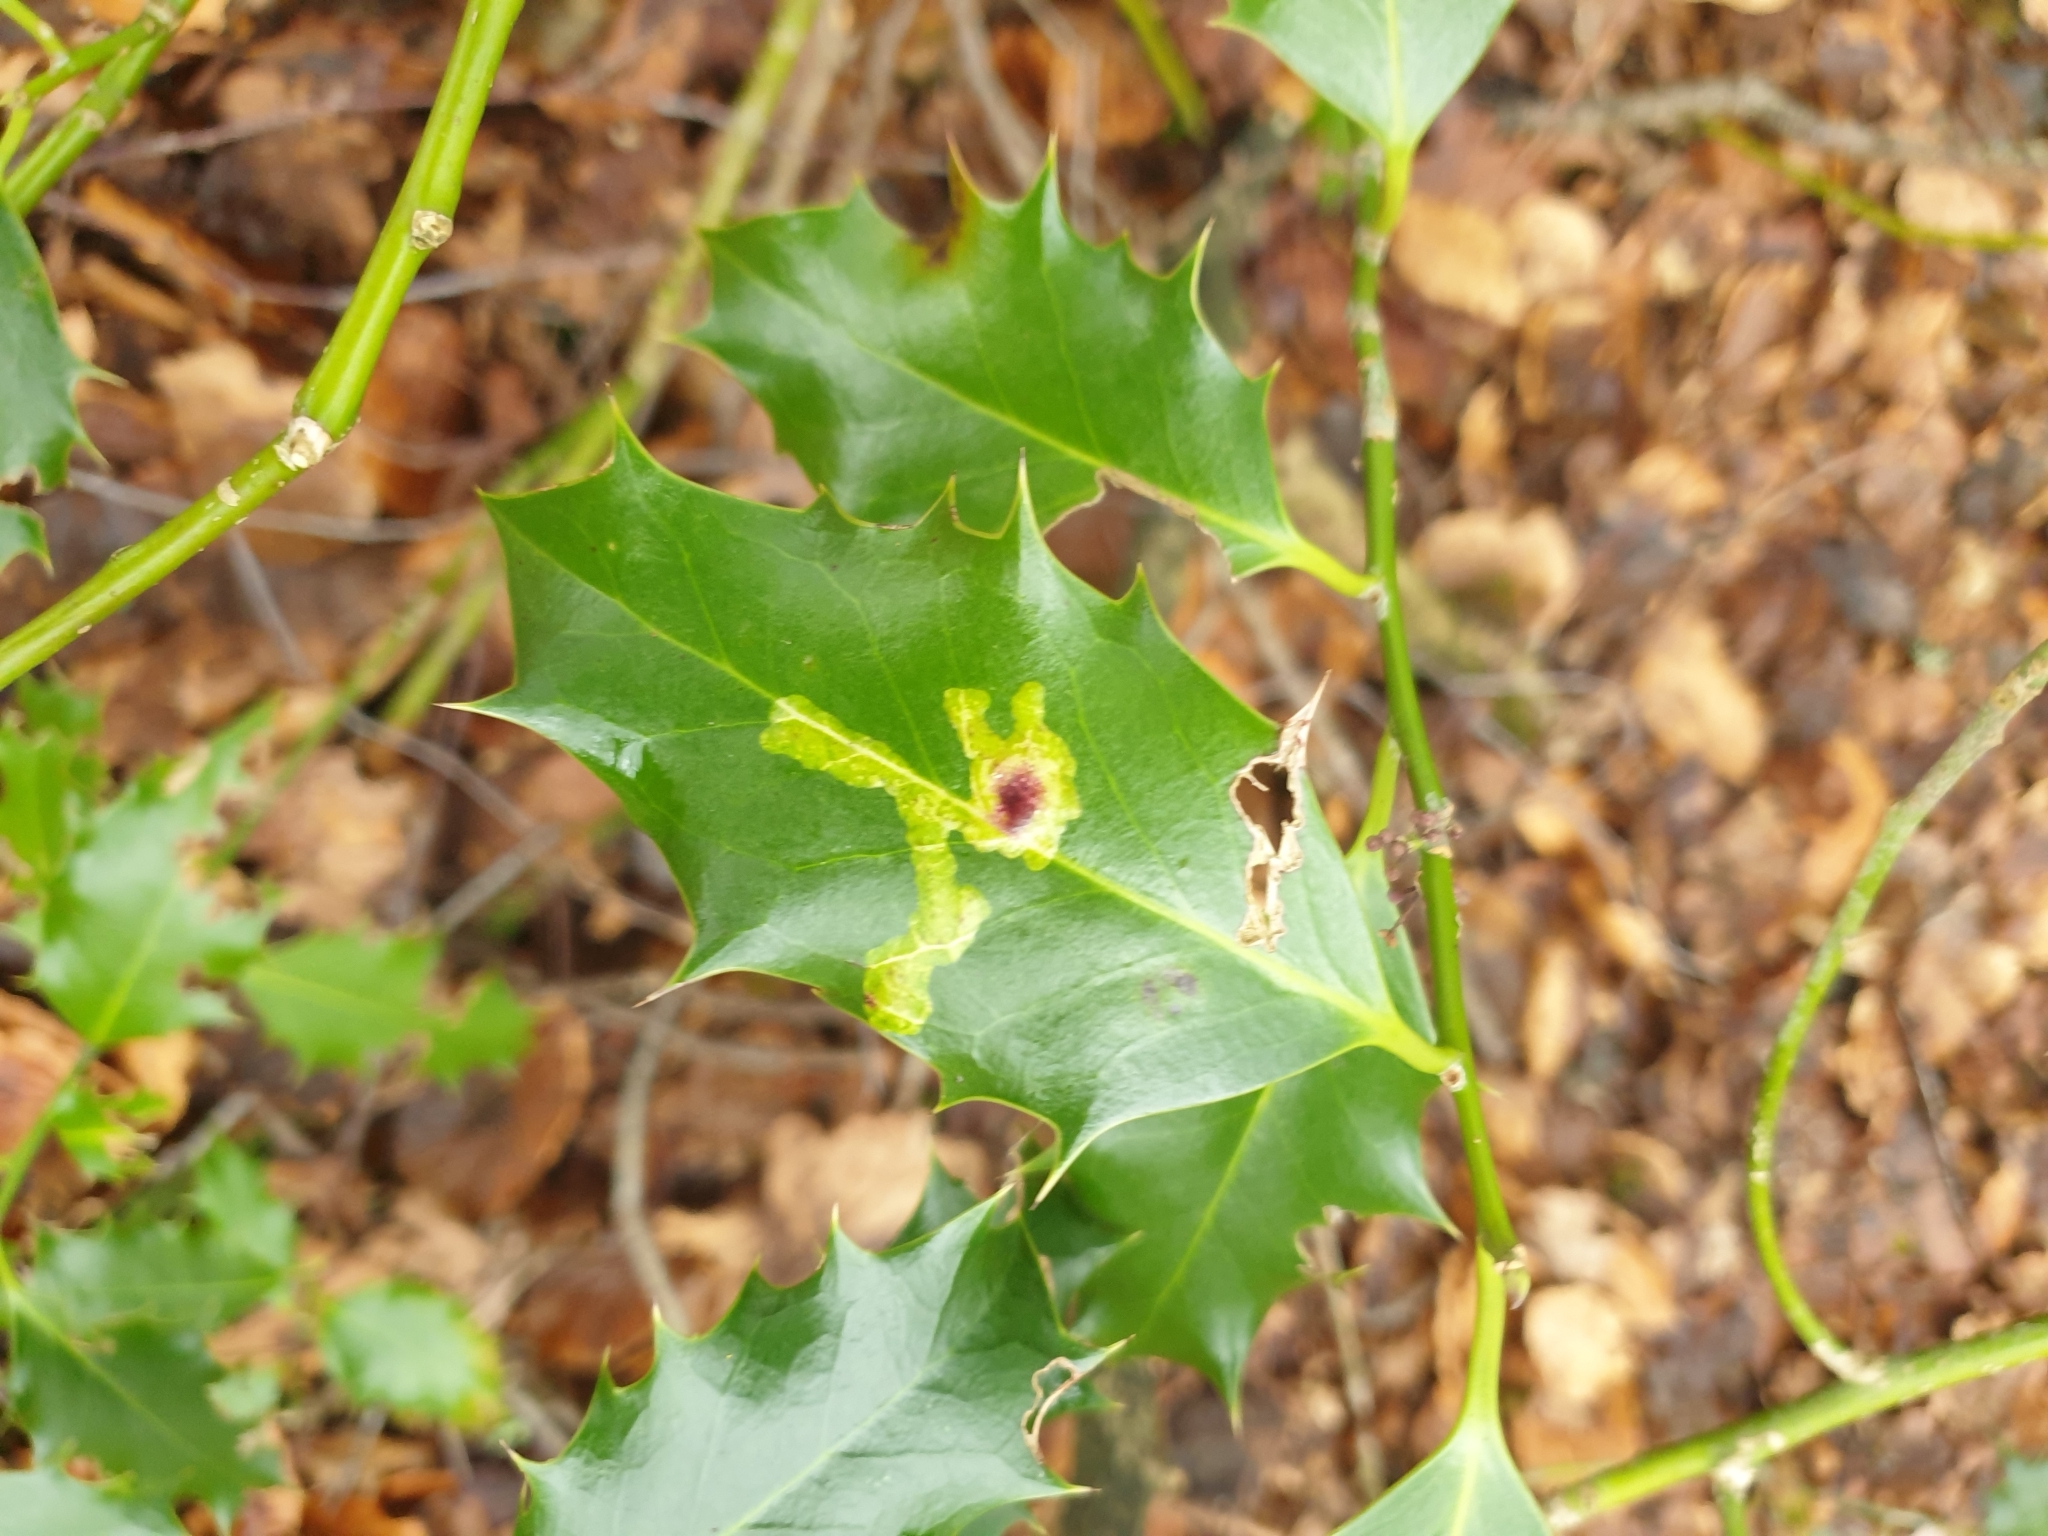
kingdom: Animalia
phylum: Arthropoda
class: Insecta
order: Diptera
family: Agromyzidae
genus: Phytomyza
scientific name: Phytomyza ilicis
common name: Holly leafminer
